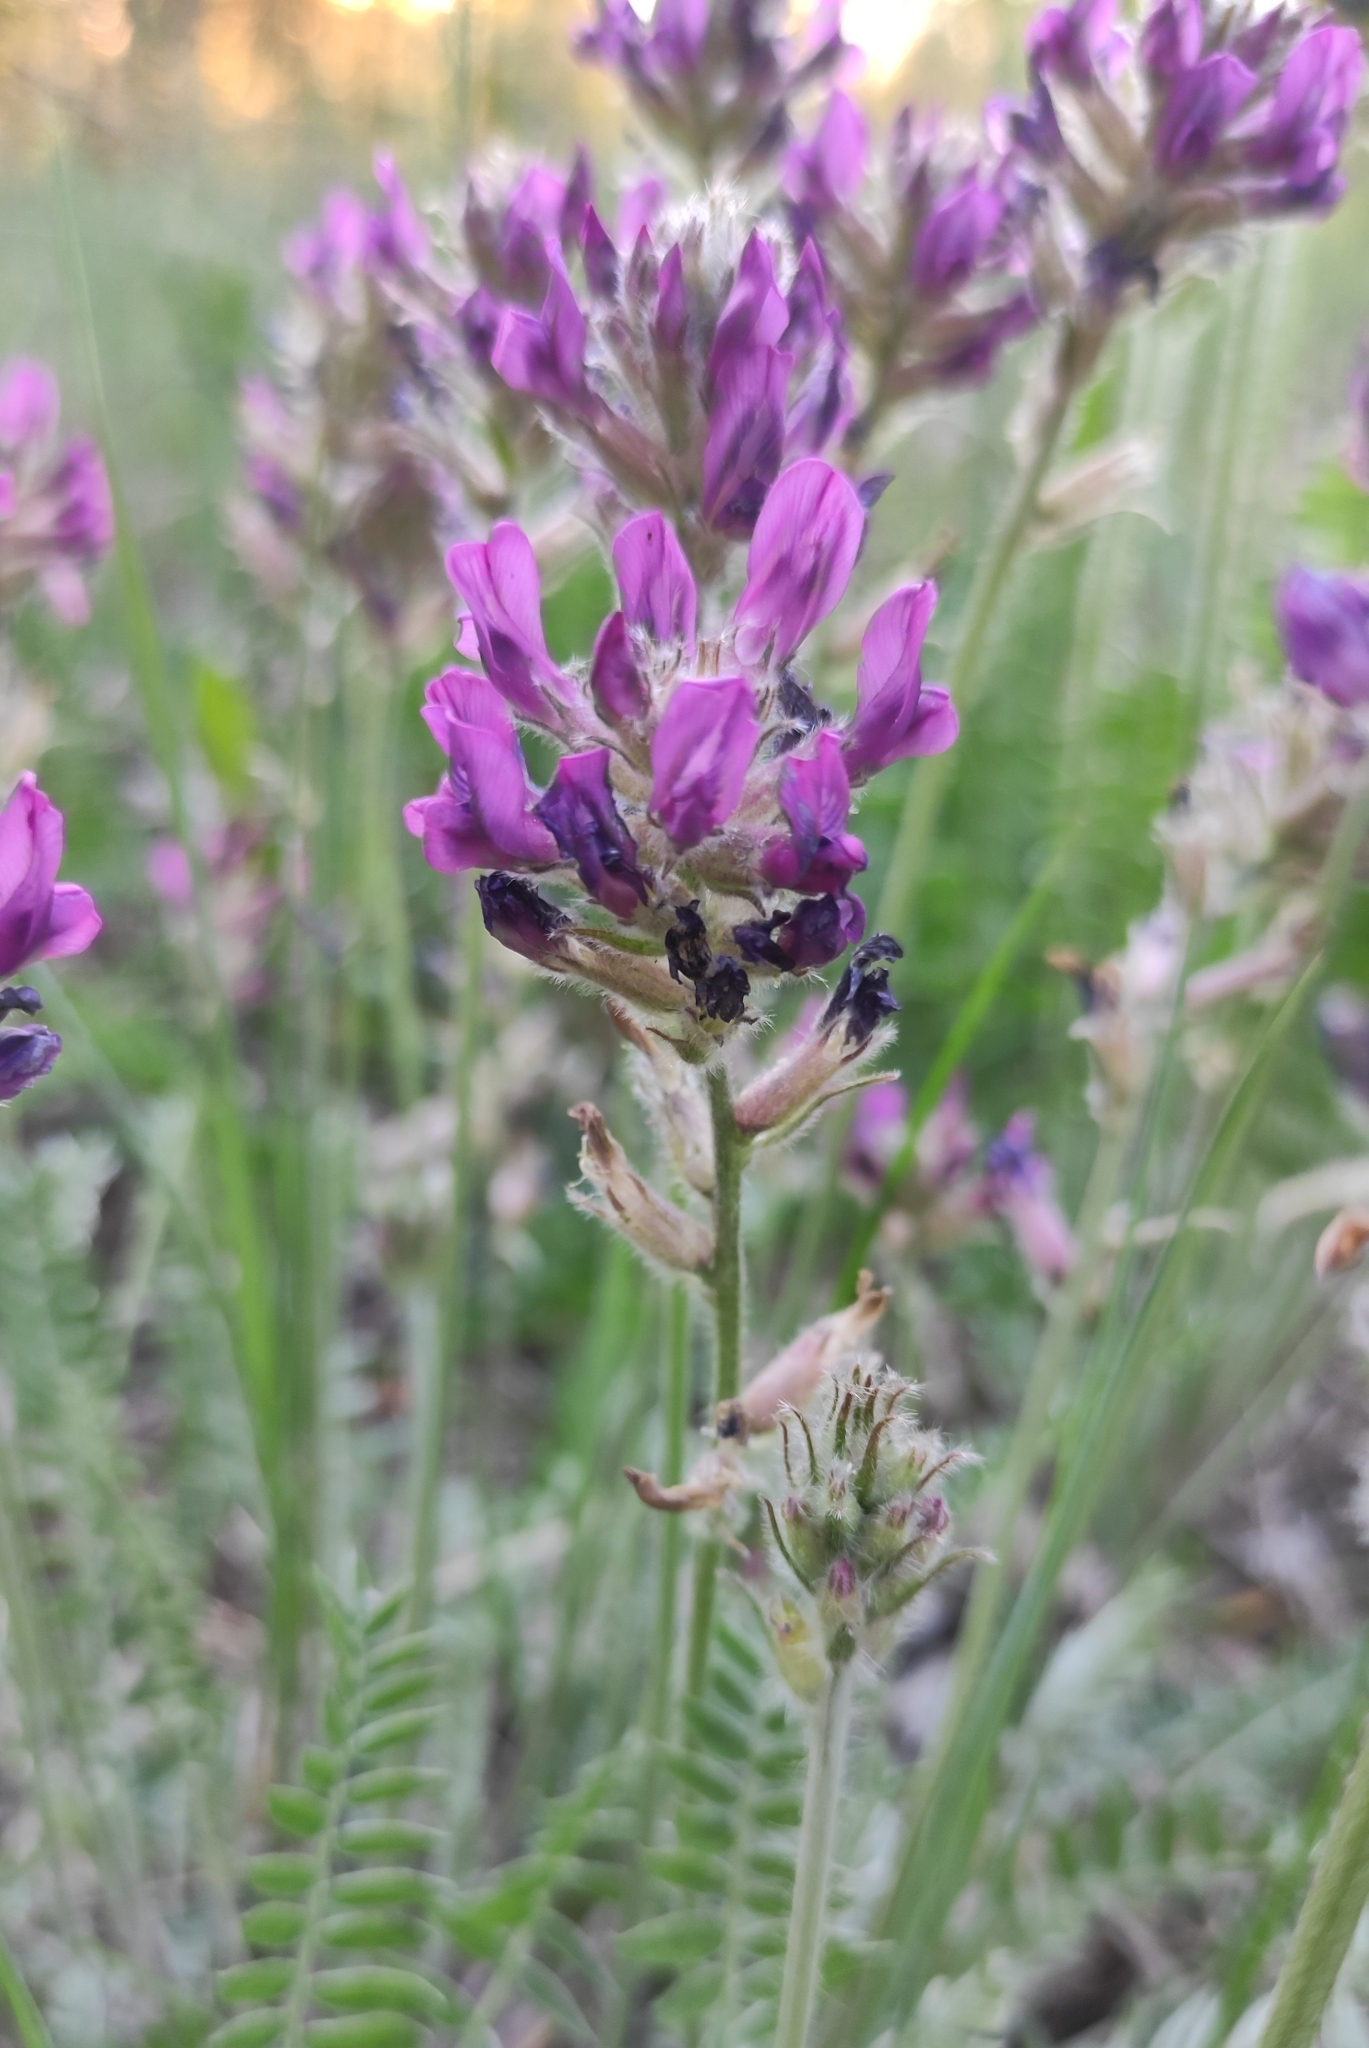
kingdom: Plantae
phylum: Tracheophyta
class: Magnoliopsida
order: Fabales
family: Fabaceae
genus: Oxytropis
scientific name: Oxytropis strobilacea
